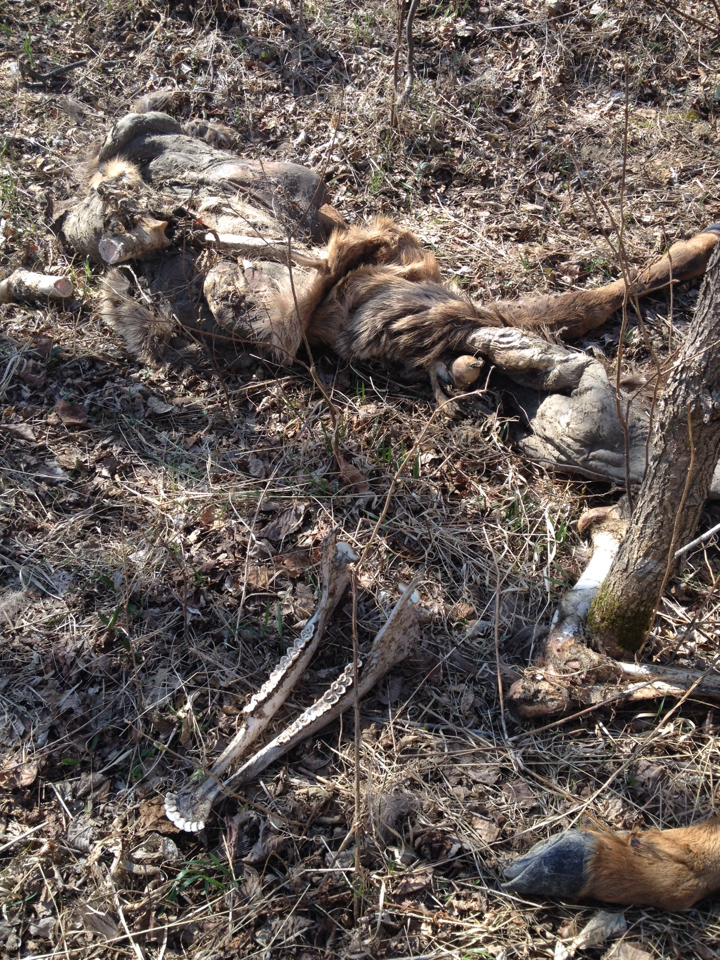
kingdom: Animalia
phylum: Chordata
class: Mammalia
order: Artiodactyla
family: Cervidae
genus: Cervus
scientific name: Cervus elaphus
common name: Red deer
